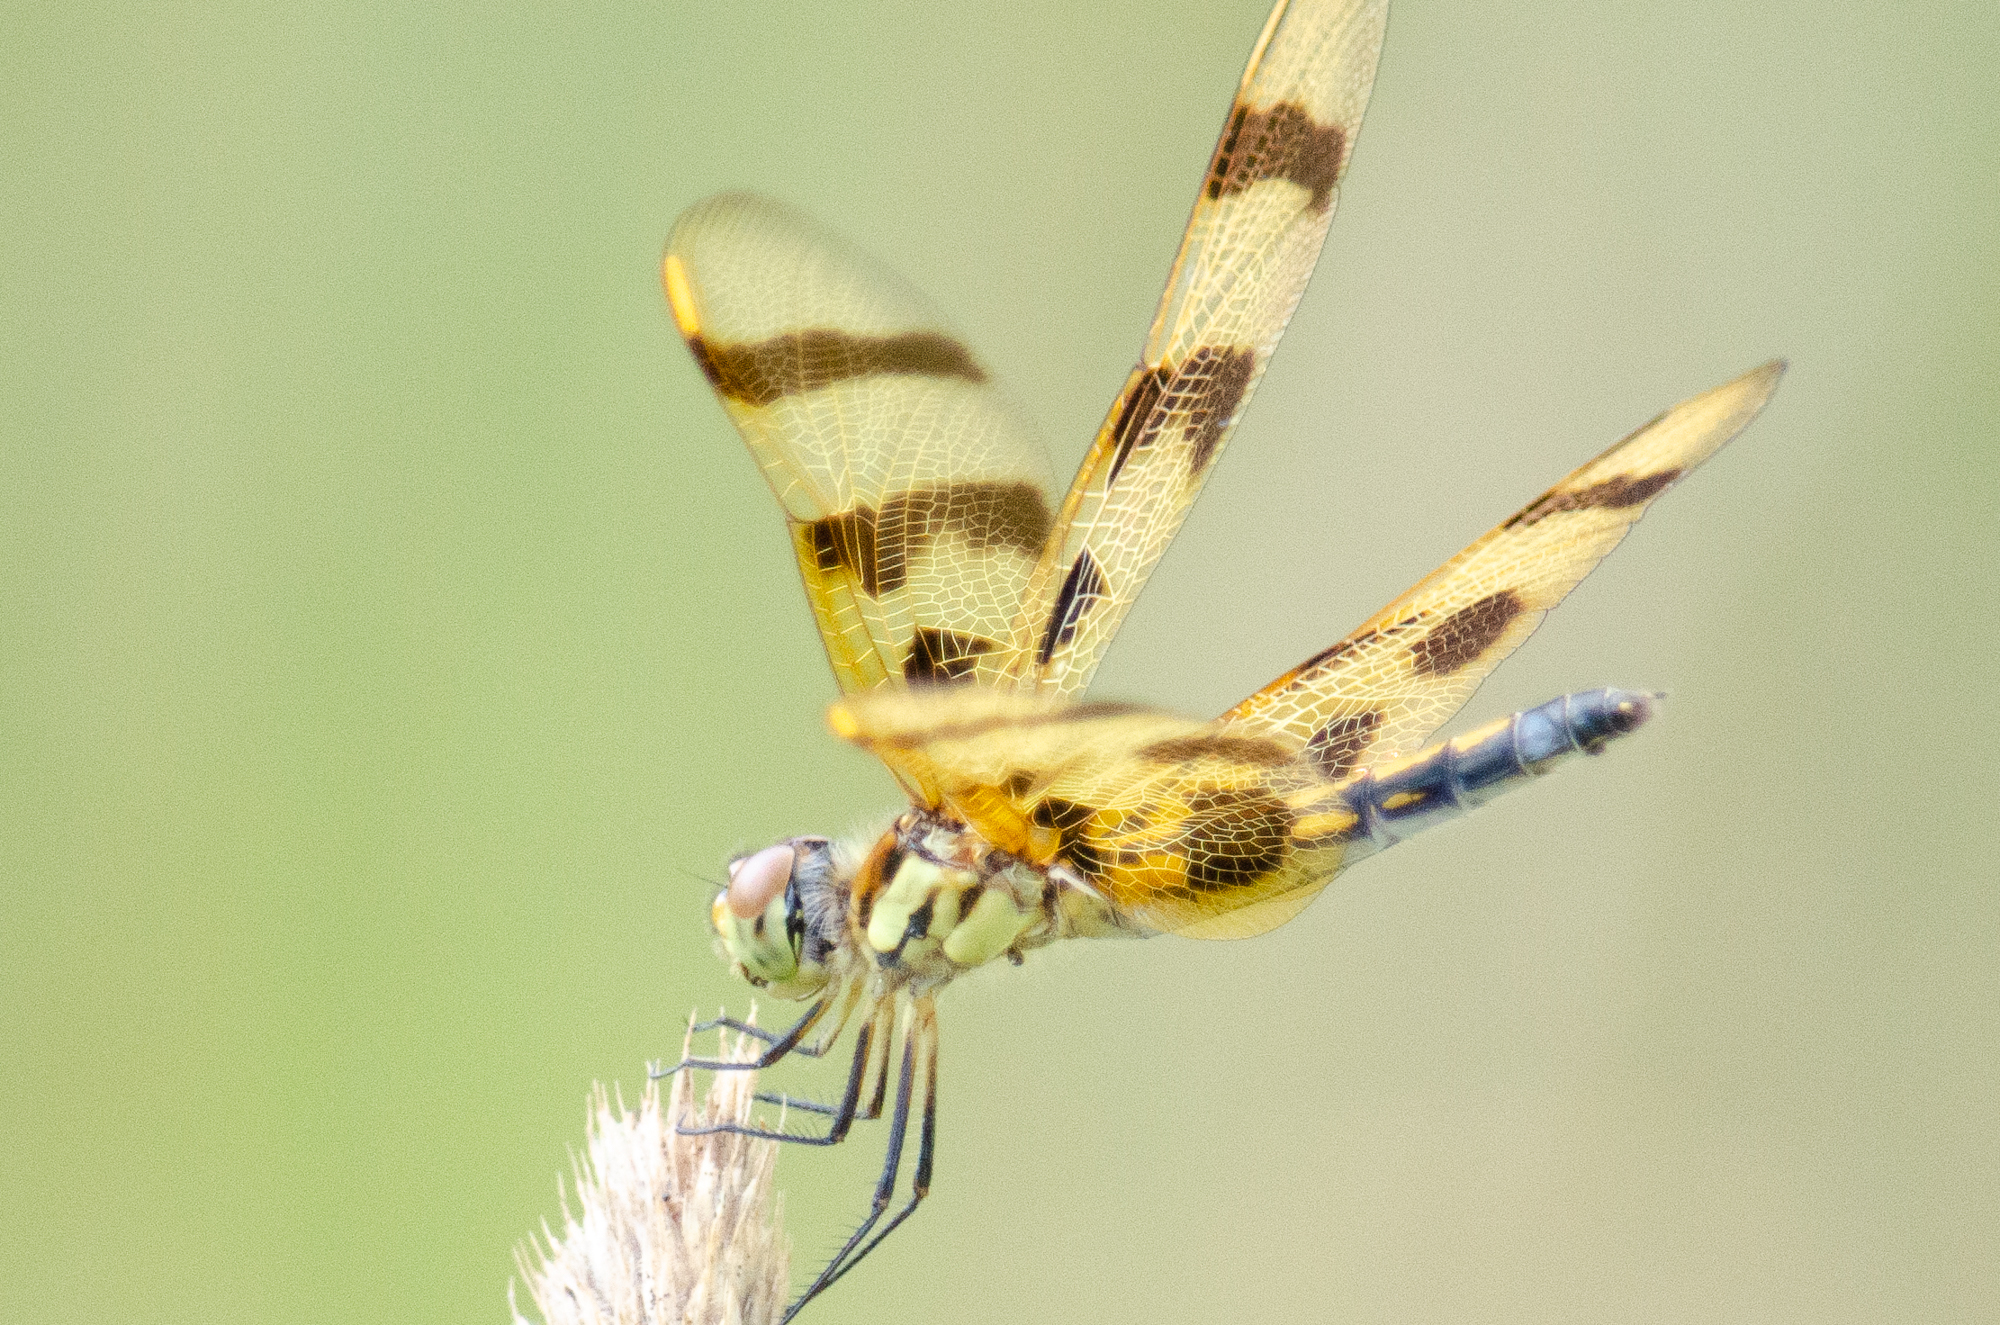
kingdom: Animalia
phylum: Arthropoda
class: Insecta
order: Odonata
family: Libellulidae
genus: Celithemis
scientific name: Celithemis eponina
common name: Halloween pennant
